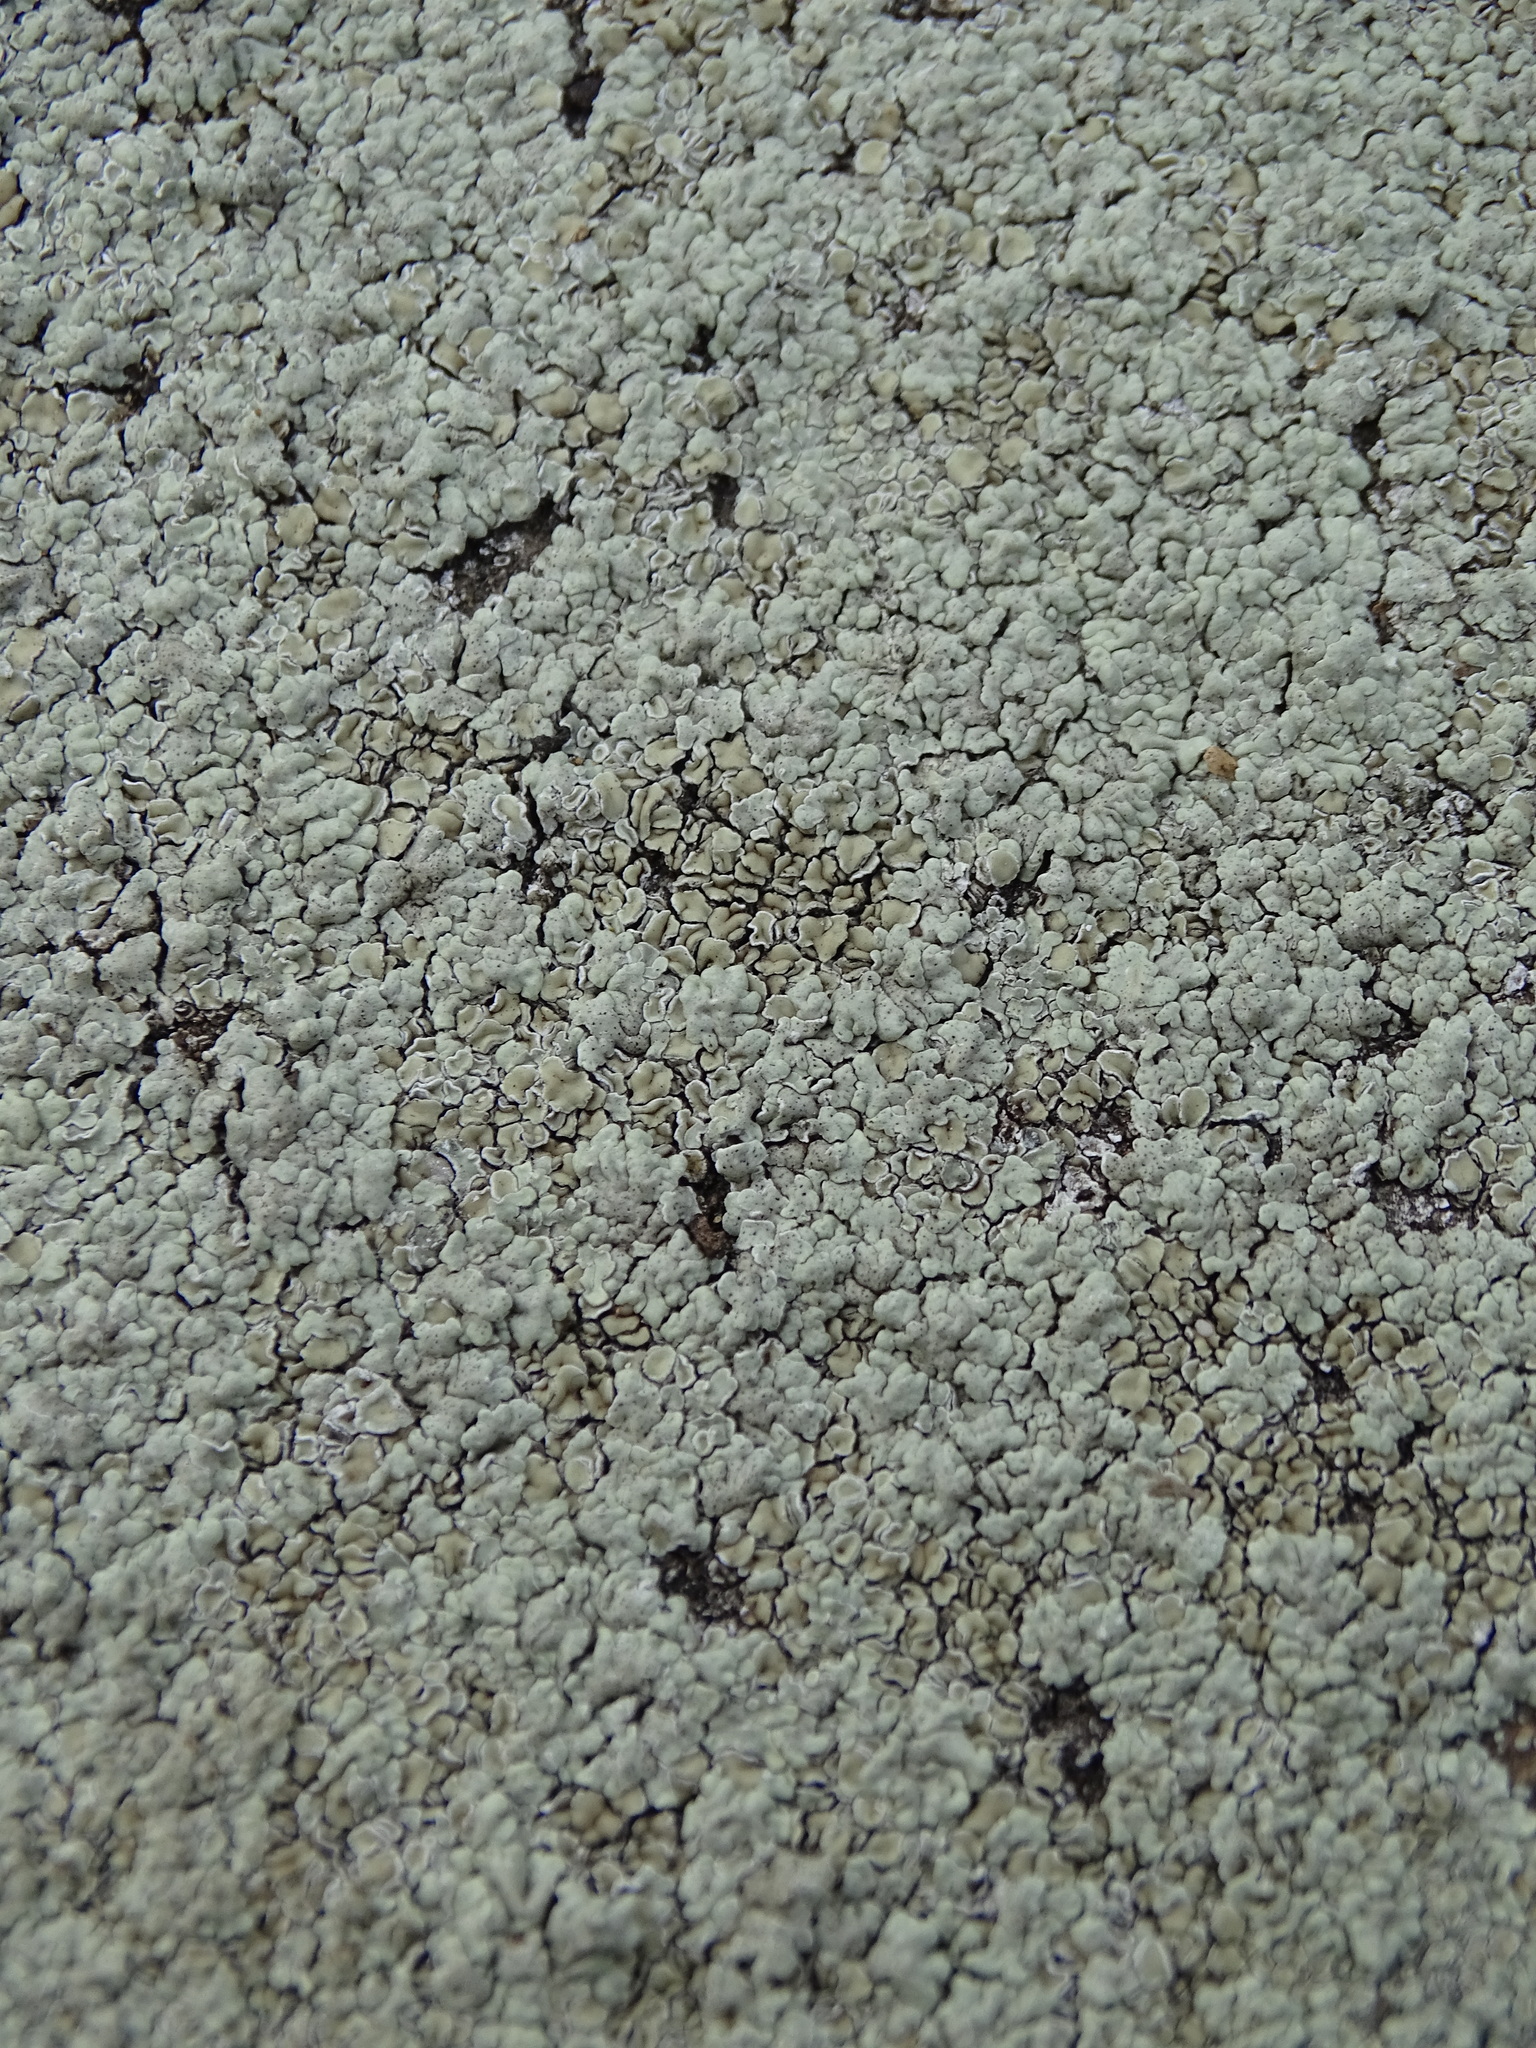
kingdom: Fungi
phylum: Ascomycota
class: Lecanoromycetes
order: Lecanorales
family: Lecanoraceae
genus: Protoparmeliopsis
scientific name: Protoparmeliopsis muralis
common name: Stonewall rim lichen
